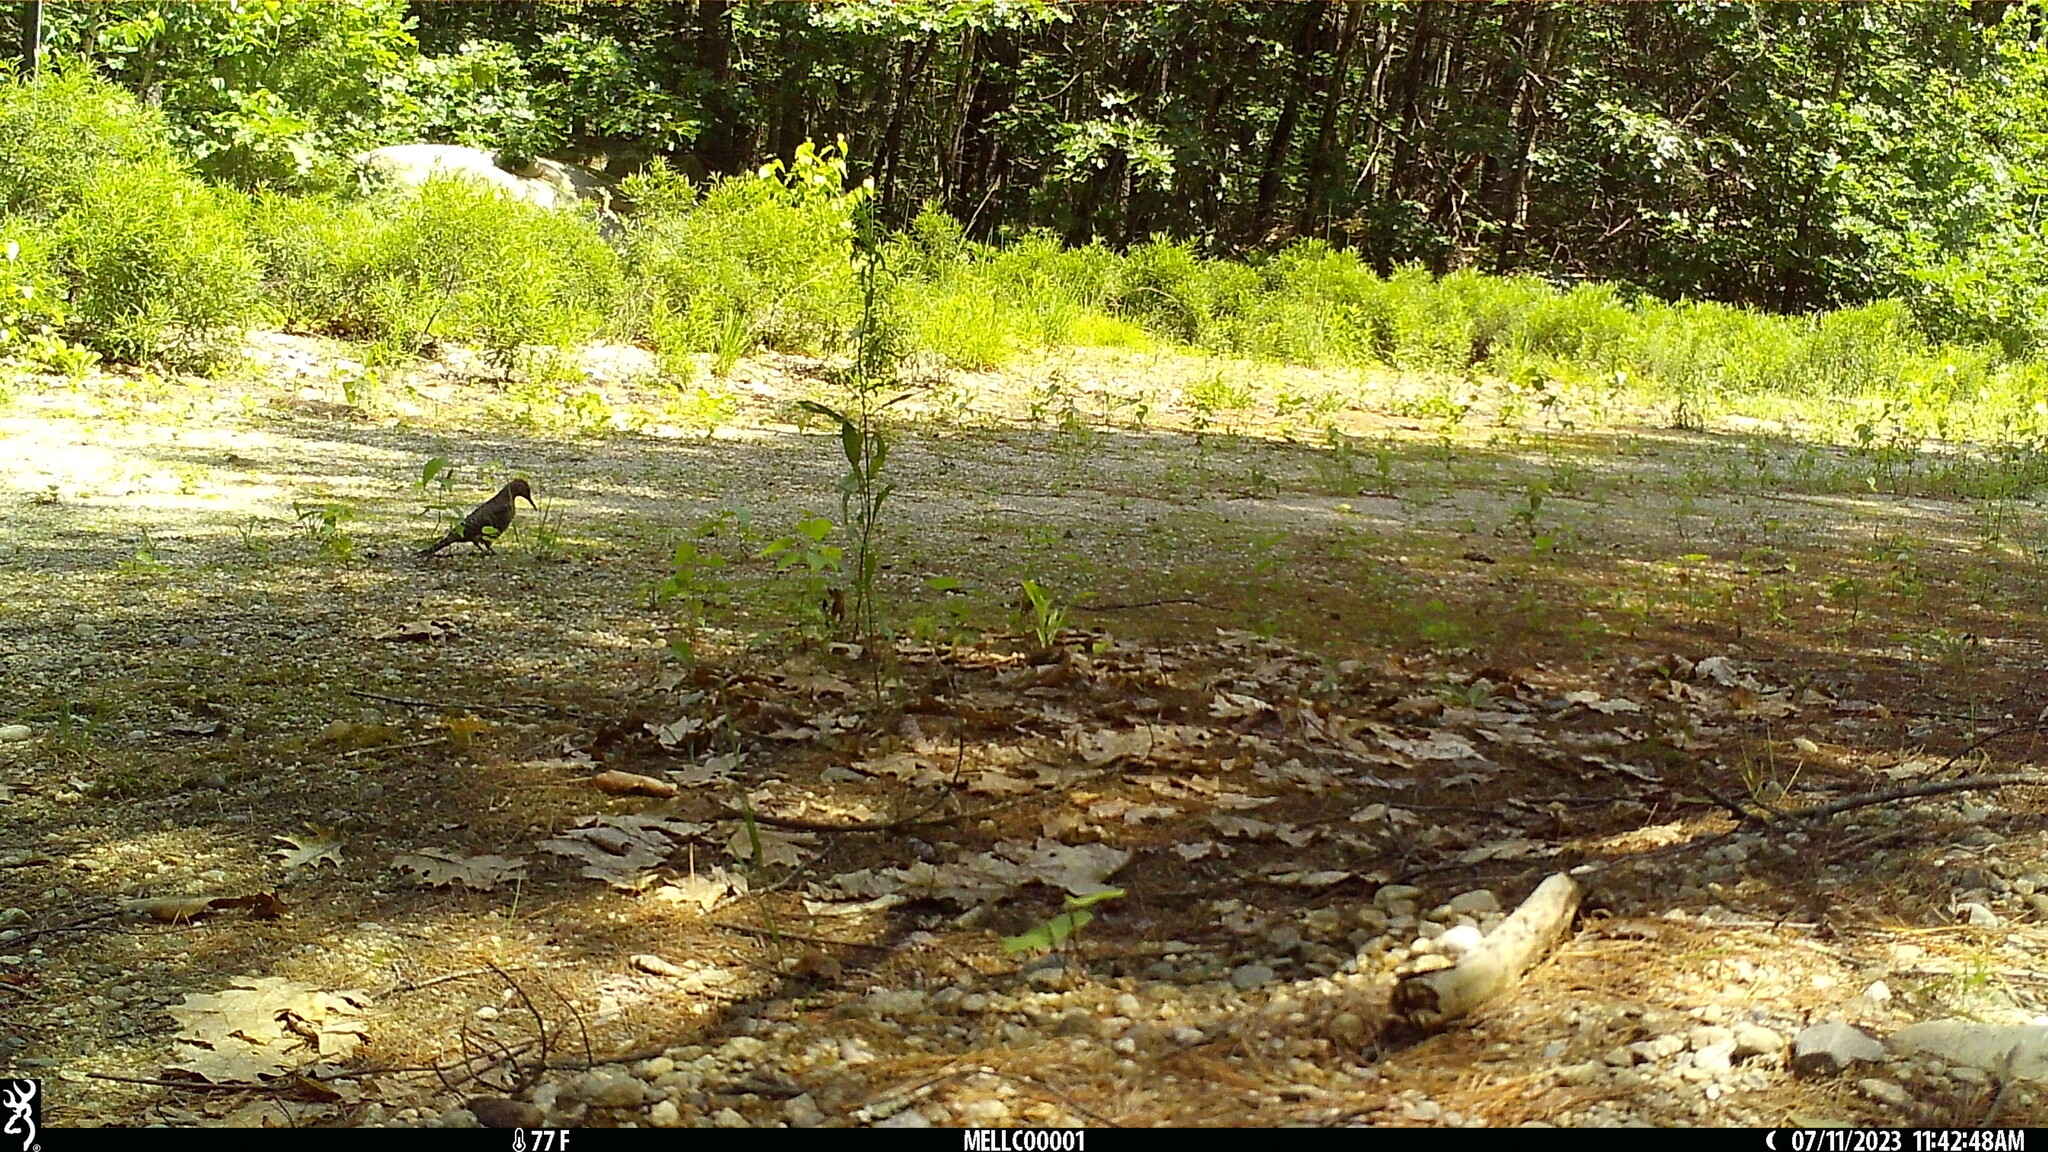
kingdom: Animalia
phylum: Chordata
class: Aves
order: Piciformes
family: Picidae
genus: Colaptes
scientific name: Colaptes auratus
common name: Northern flicker
